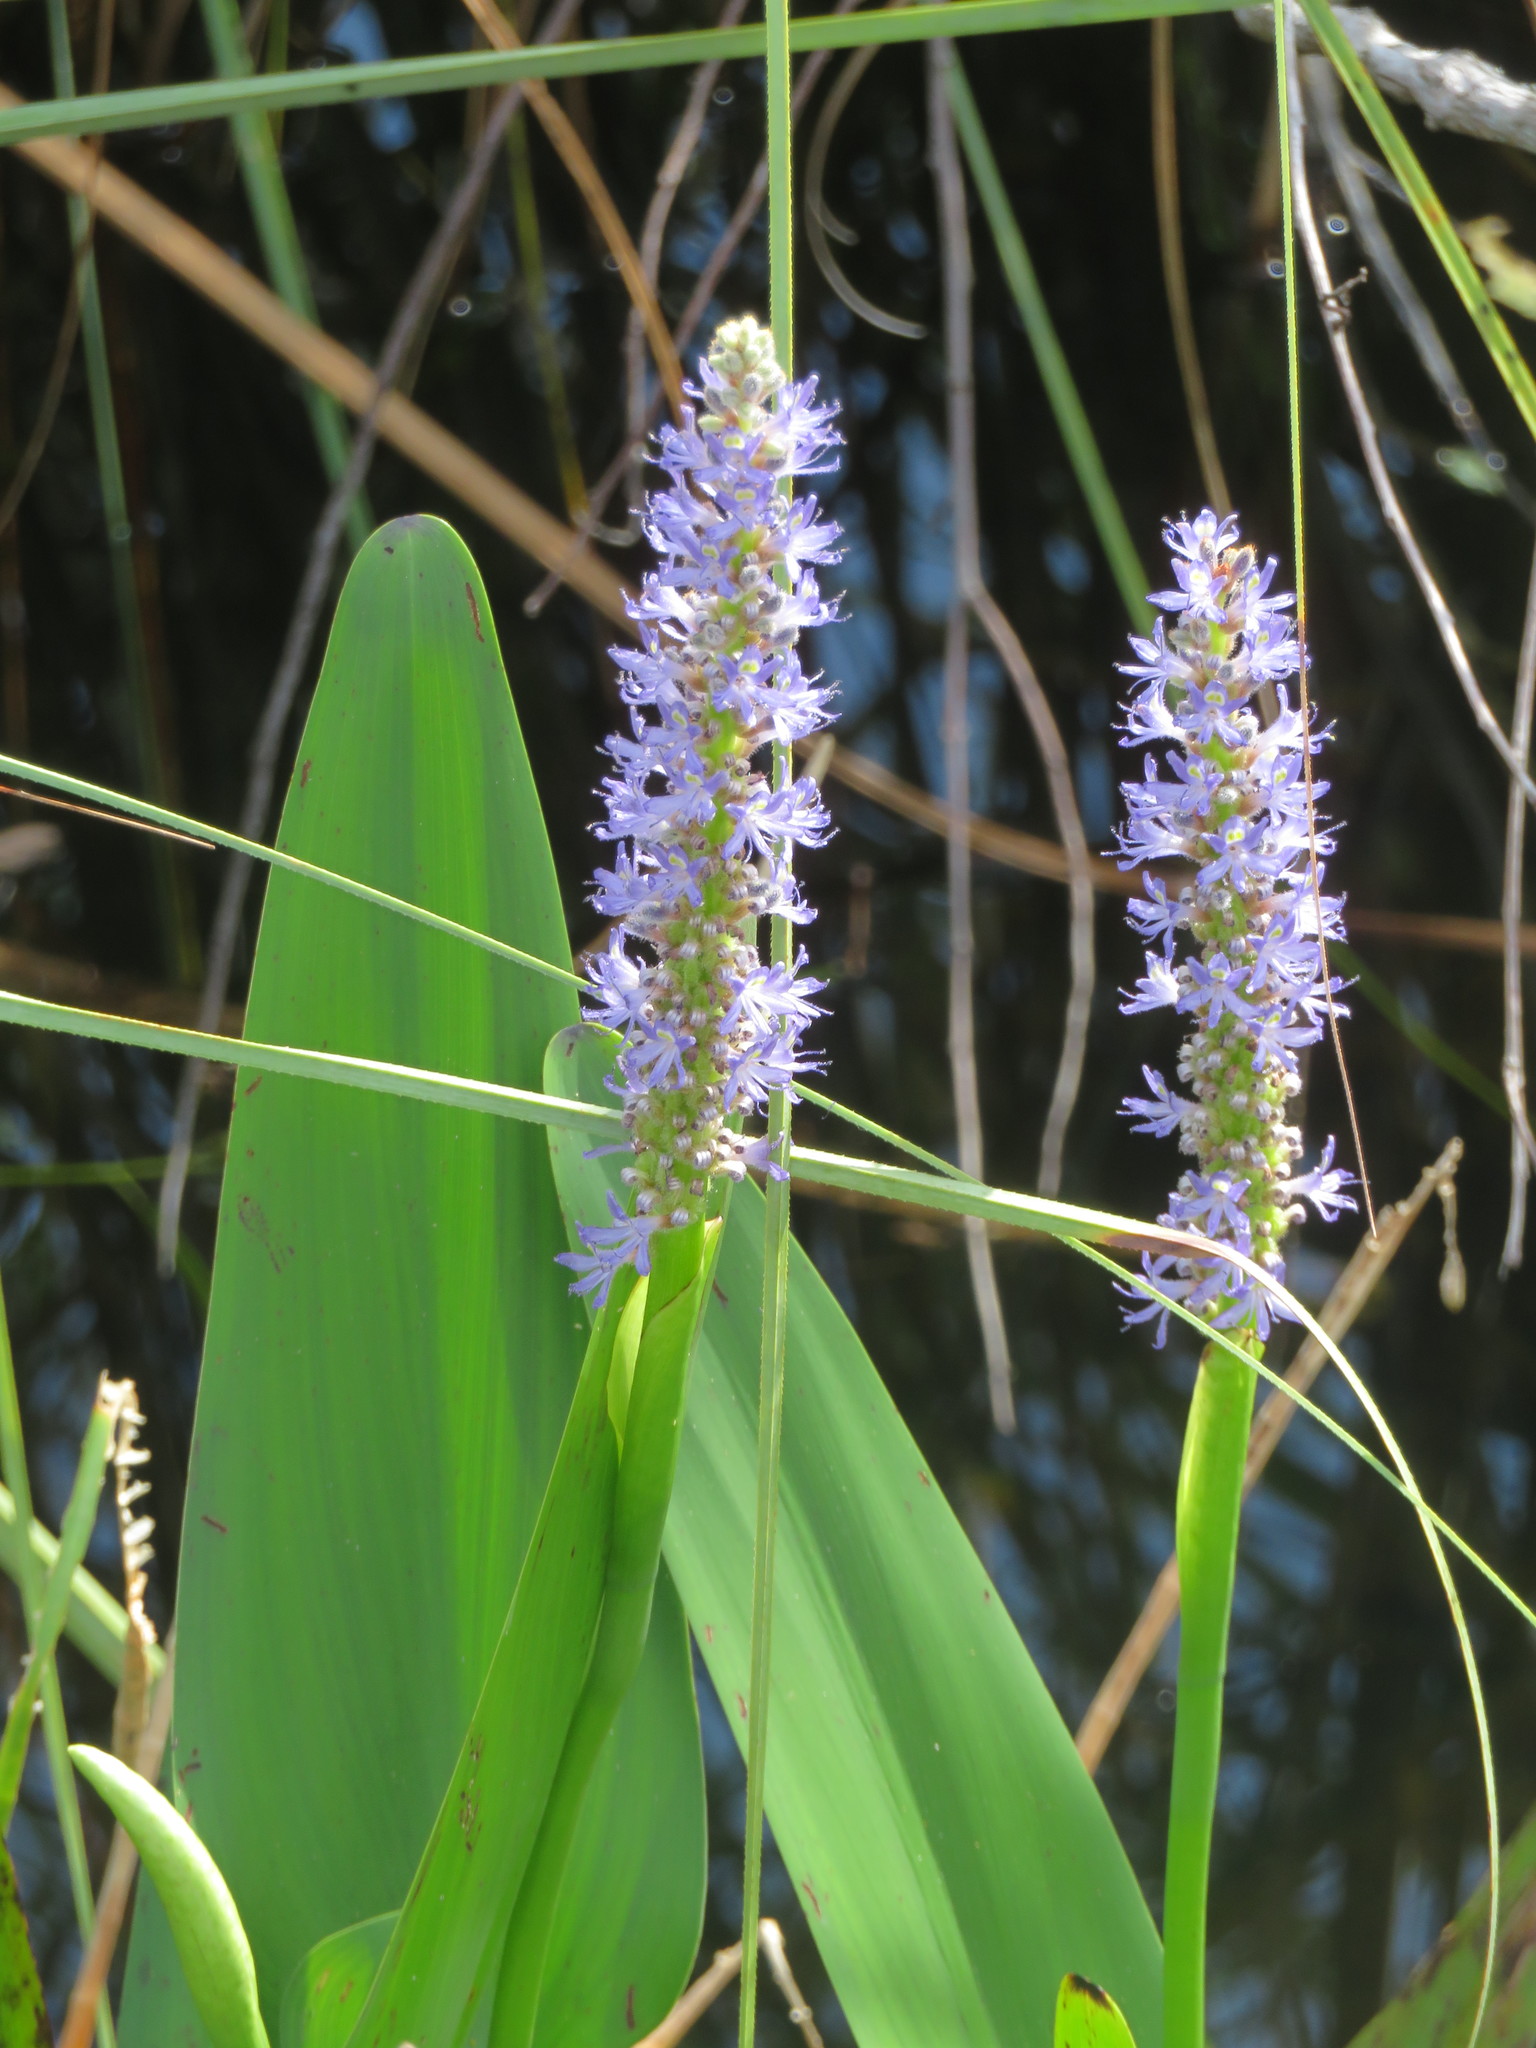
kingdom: Plantae
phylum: Tracheophyta
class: Liliopsida
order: Commelinales
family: Pontederiaceae
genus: Pontederia
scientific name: Pontederia cordata
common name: Pickerelweed
